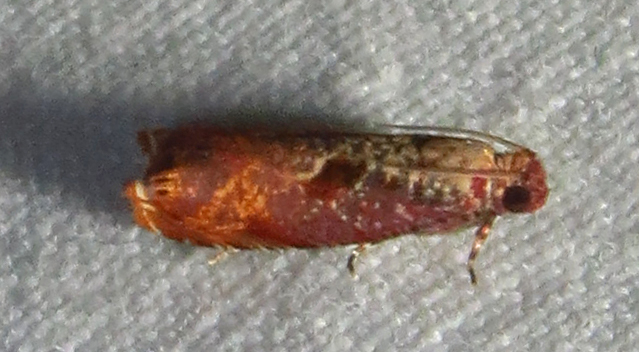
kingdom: Animalia
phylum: Arthropoda
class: Insecta
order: Lepidoptera
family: Tortricidae
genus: Episimus
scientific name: Episimus tyrius
